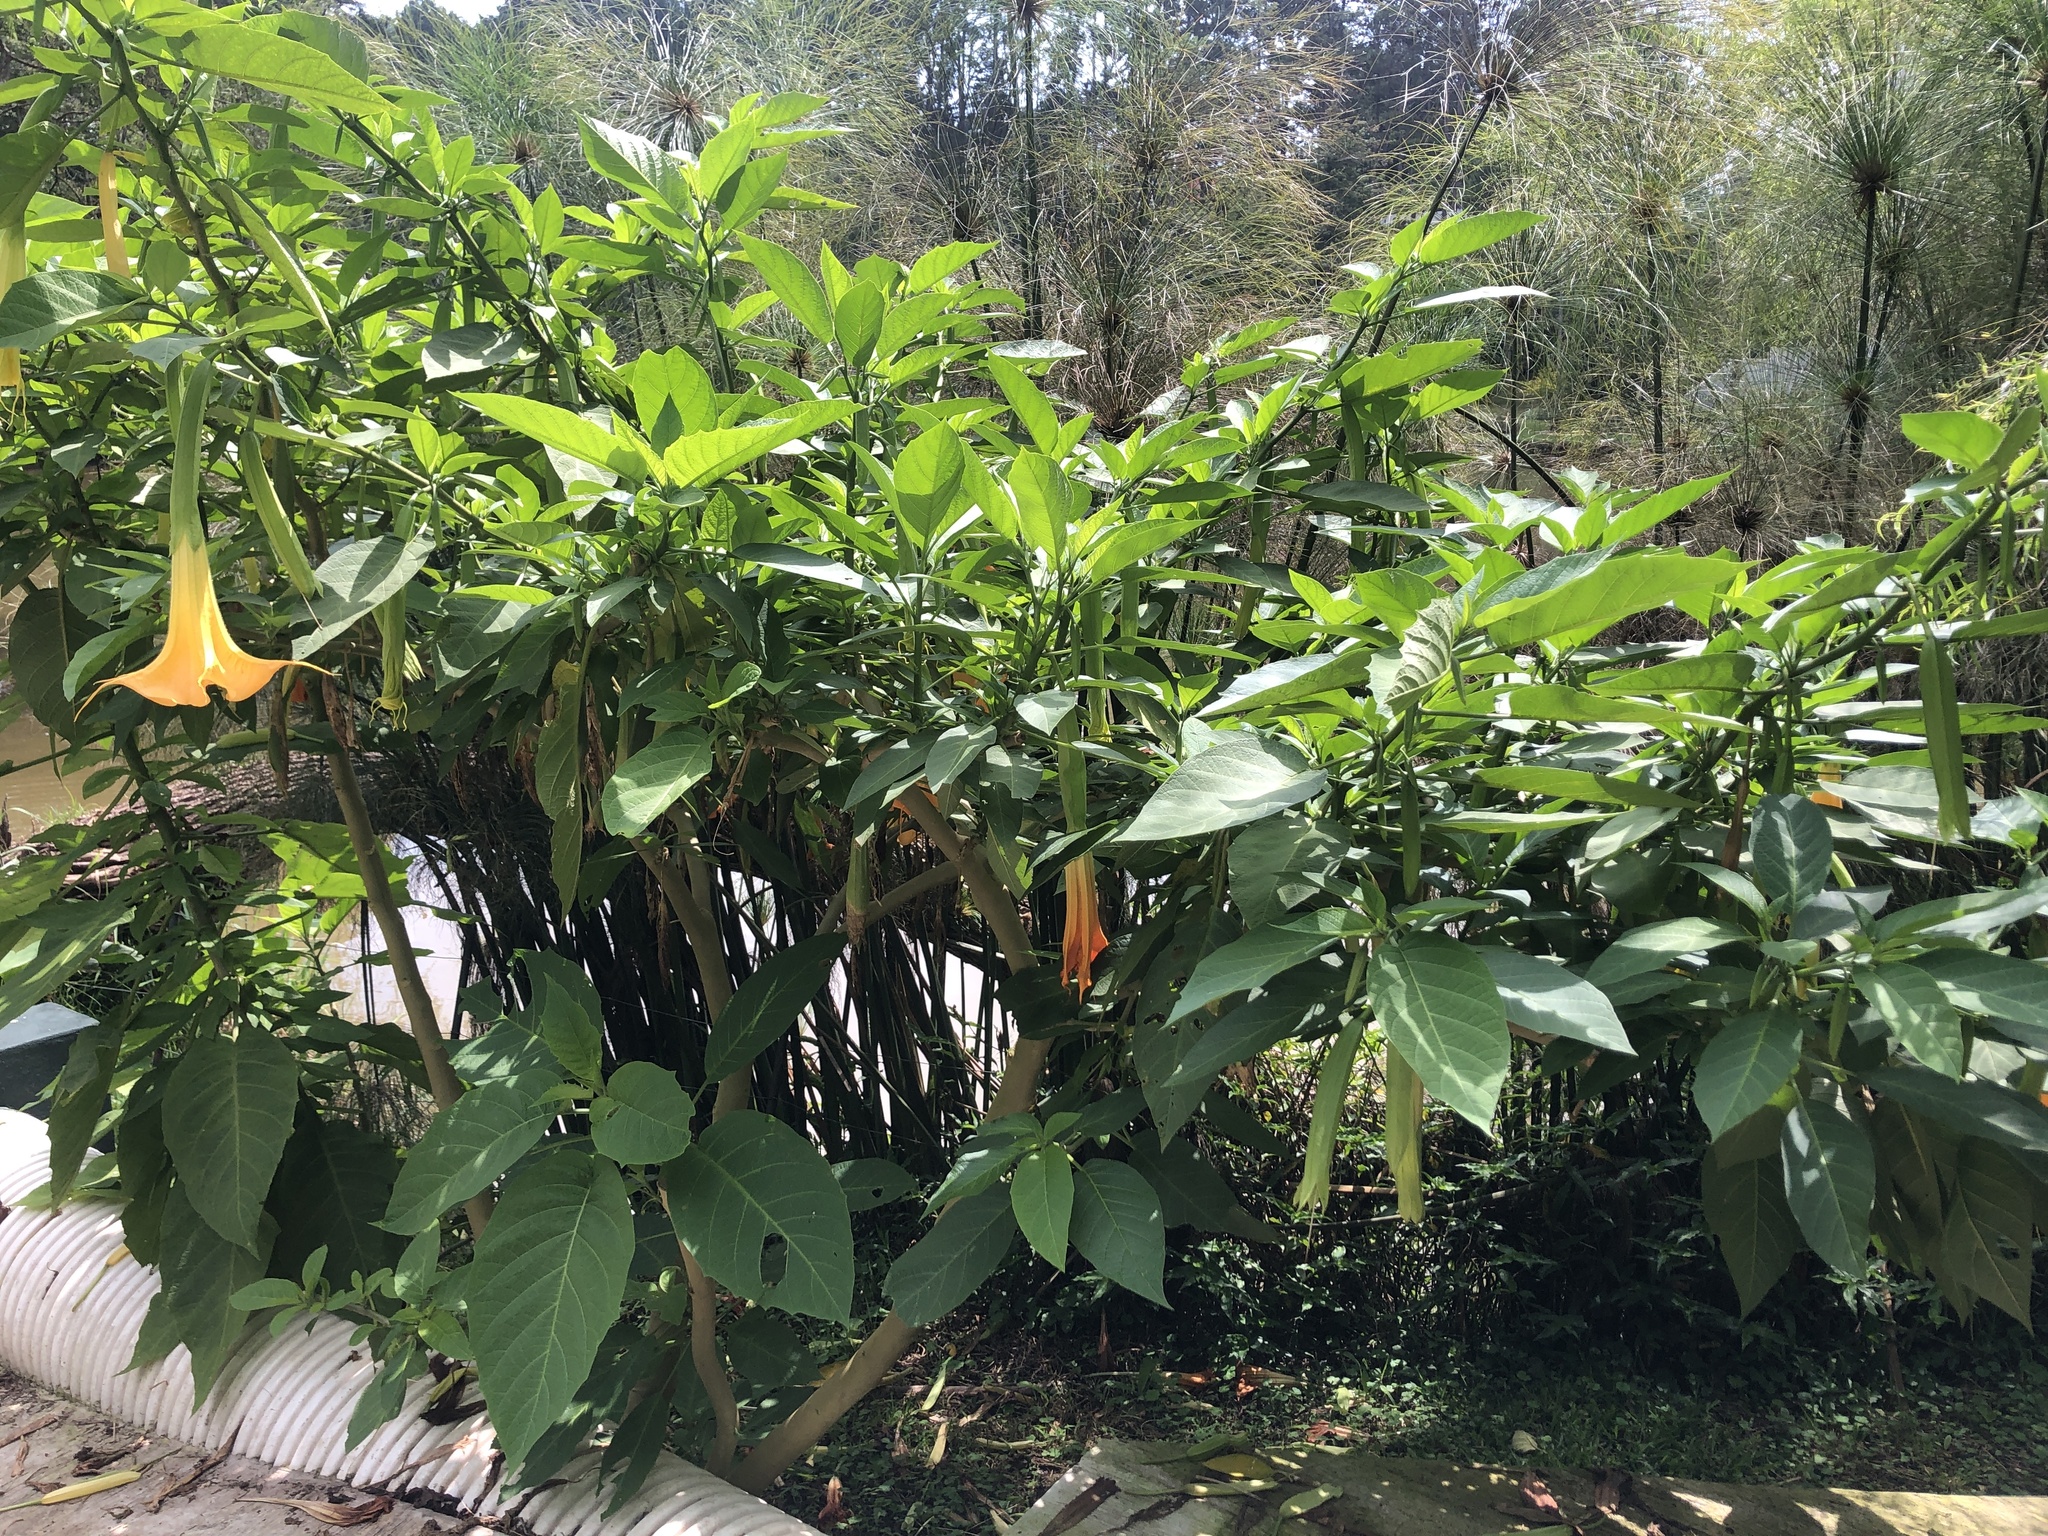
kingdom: Plantae
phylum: Tracheophyta
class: Magnoliopsida
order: Solanales
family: Solanaceae
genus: Brugmansia
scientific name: Brugmansia versicolor
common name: Arborescent angel's-tears
